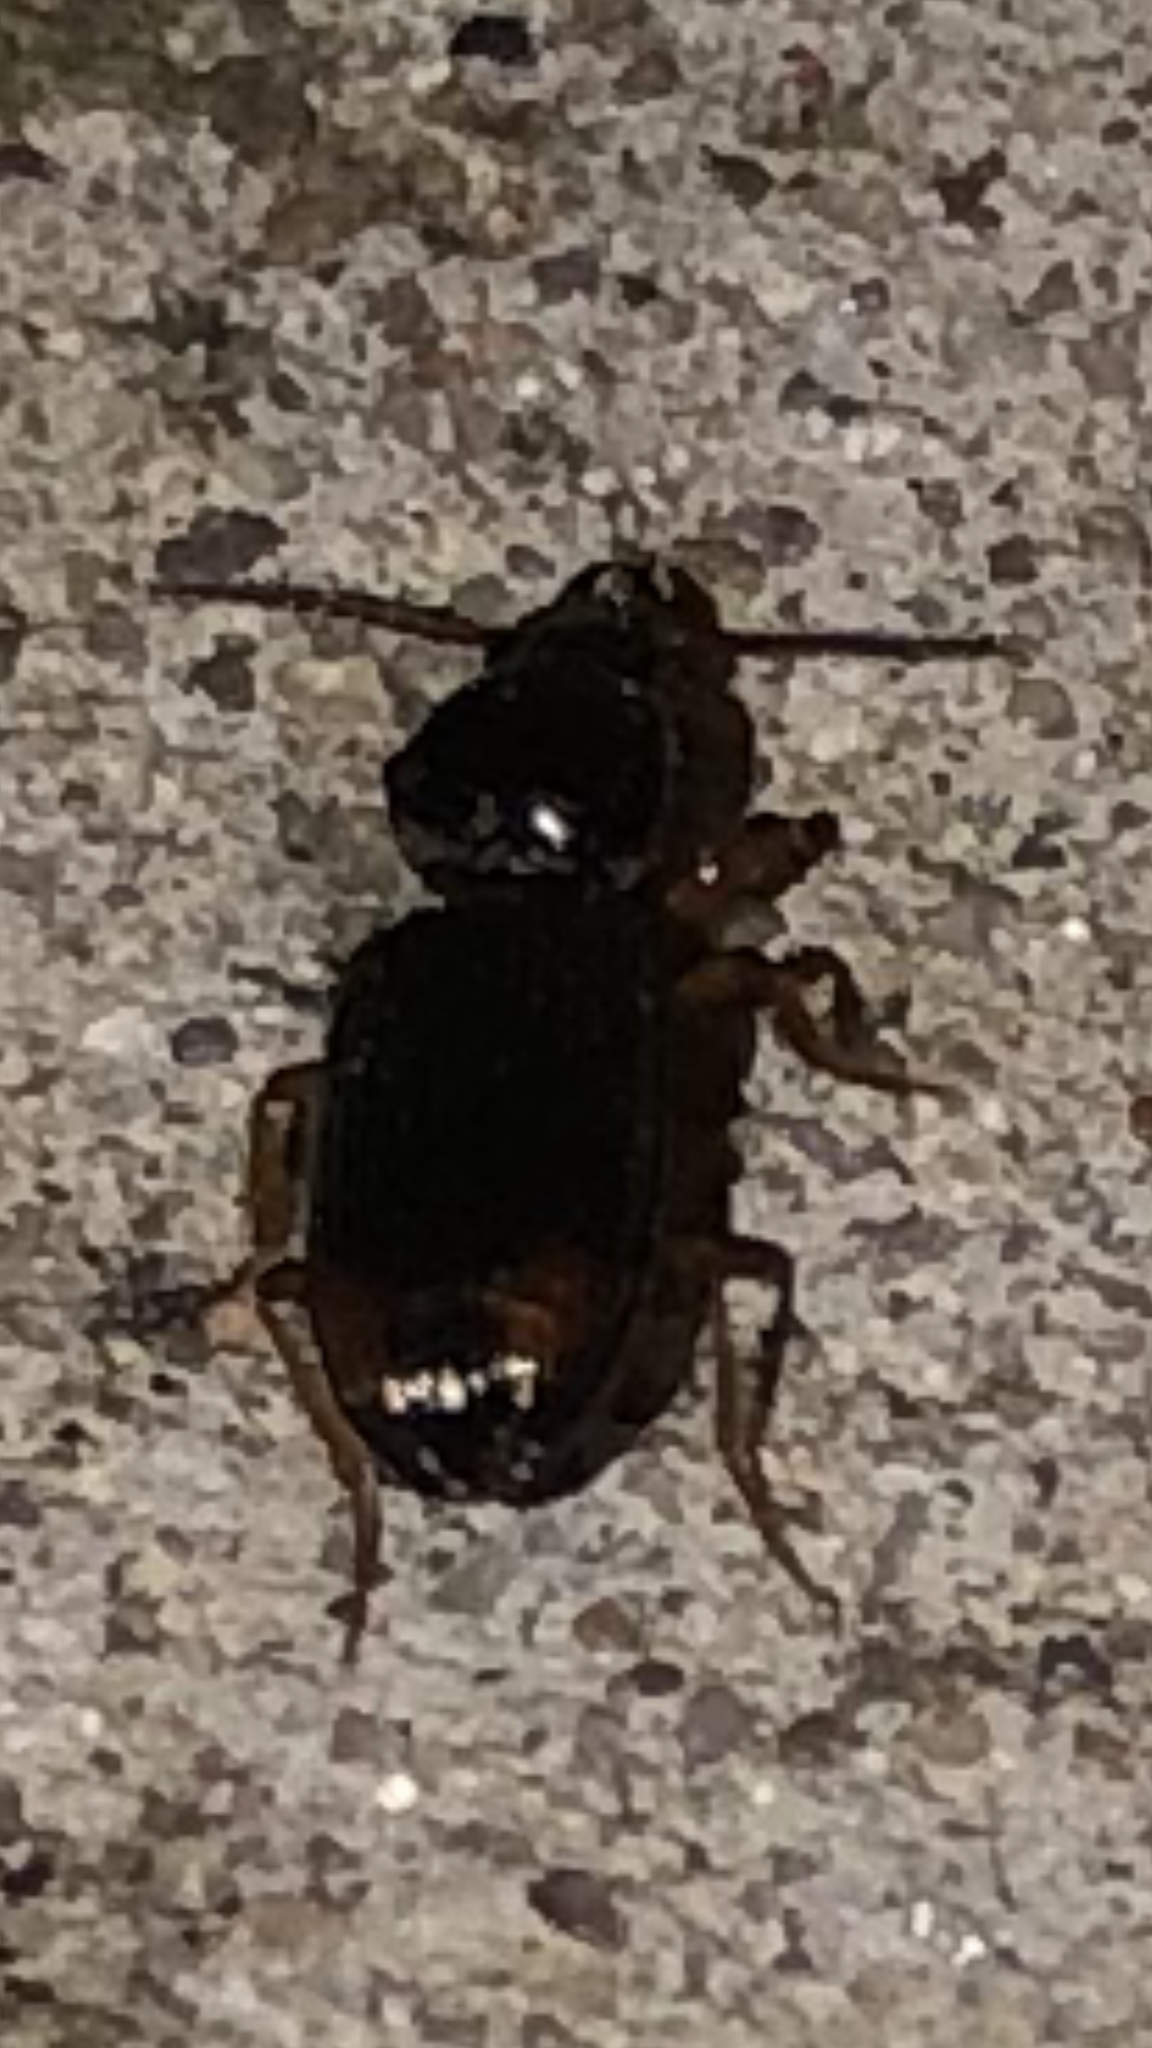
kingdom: Animalia
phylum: Arthropoda
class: Insecta
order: Coleoptera
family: Carabidae
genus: Aspidoglossa
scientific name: Aspidoglossa subangulata
